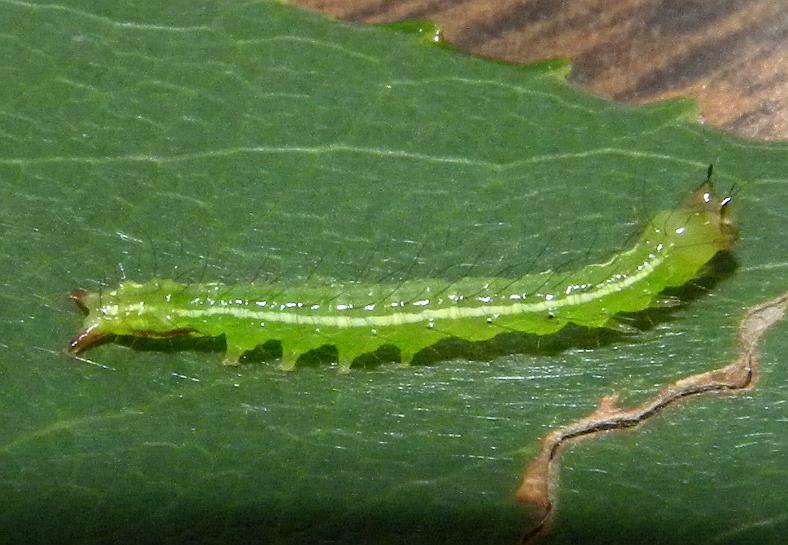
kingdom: Animalia
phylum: Arthropoda
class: Insecta
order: Lepidoptera
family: Noctuidae
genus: Cerma
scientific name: Cerma cerintha
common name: Tufted bird-dropping moth
